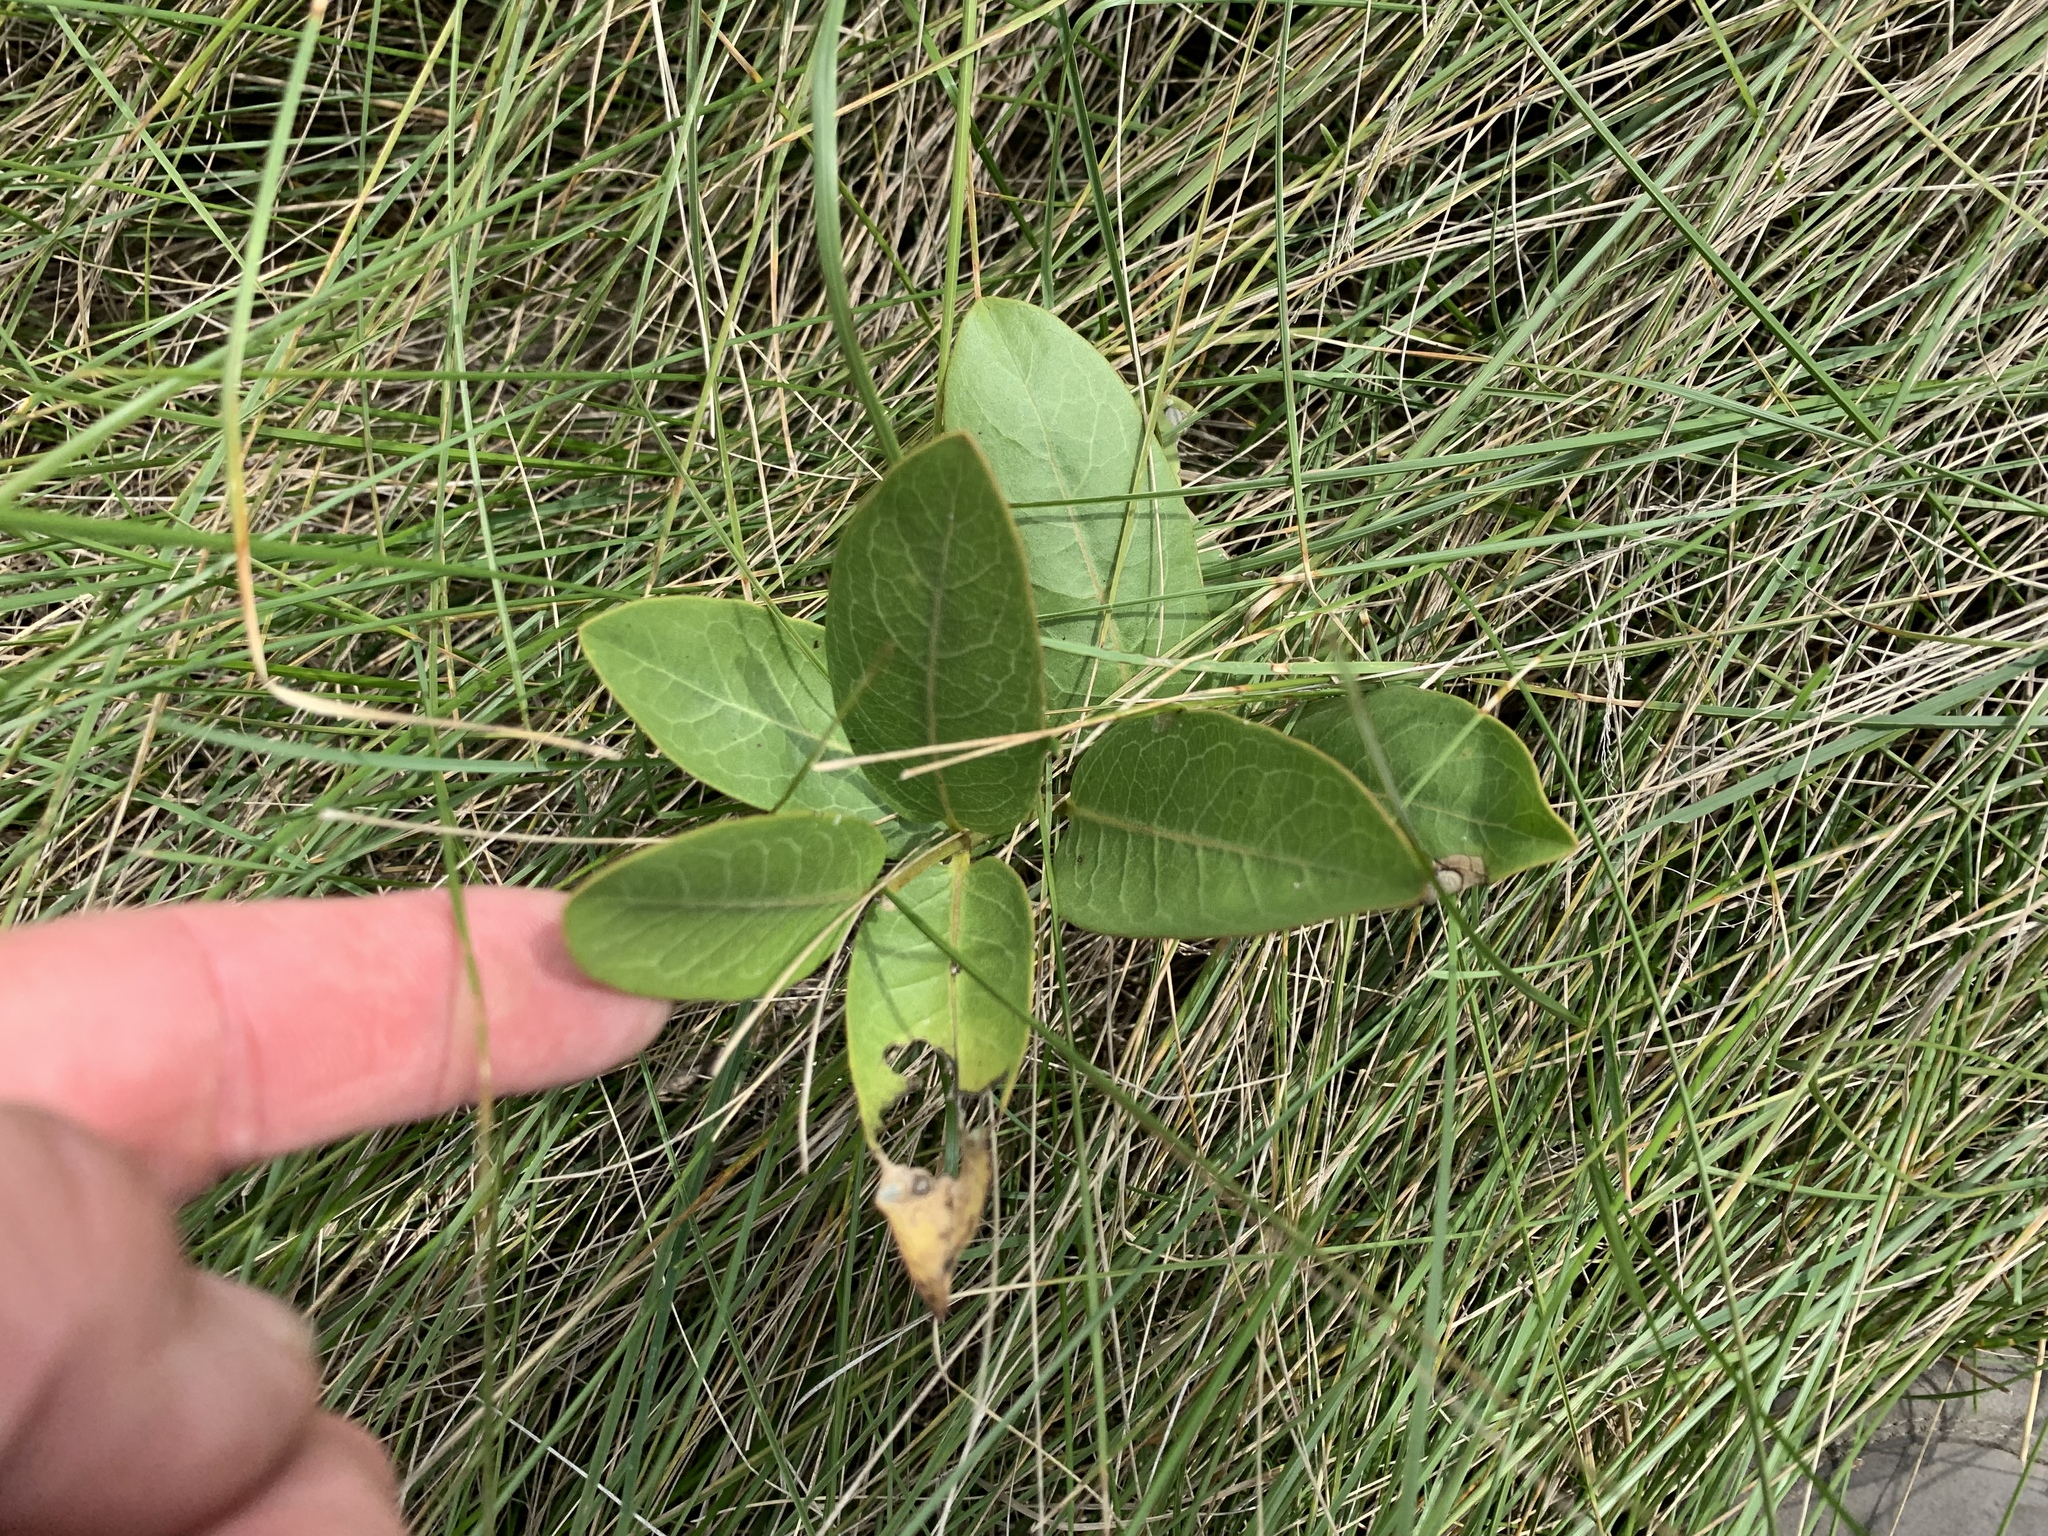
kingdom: Plantae
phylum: Tracheophyta
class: Magnoliopsida
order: Gentianales
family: Apocynaceae
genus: Asclepias
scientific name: Asclepias syriaca
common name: Common milkweed
